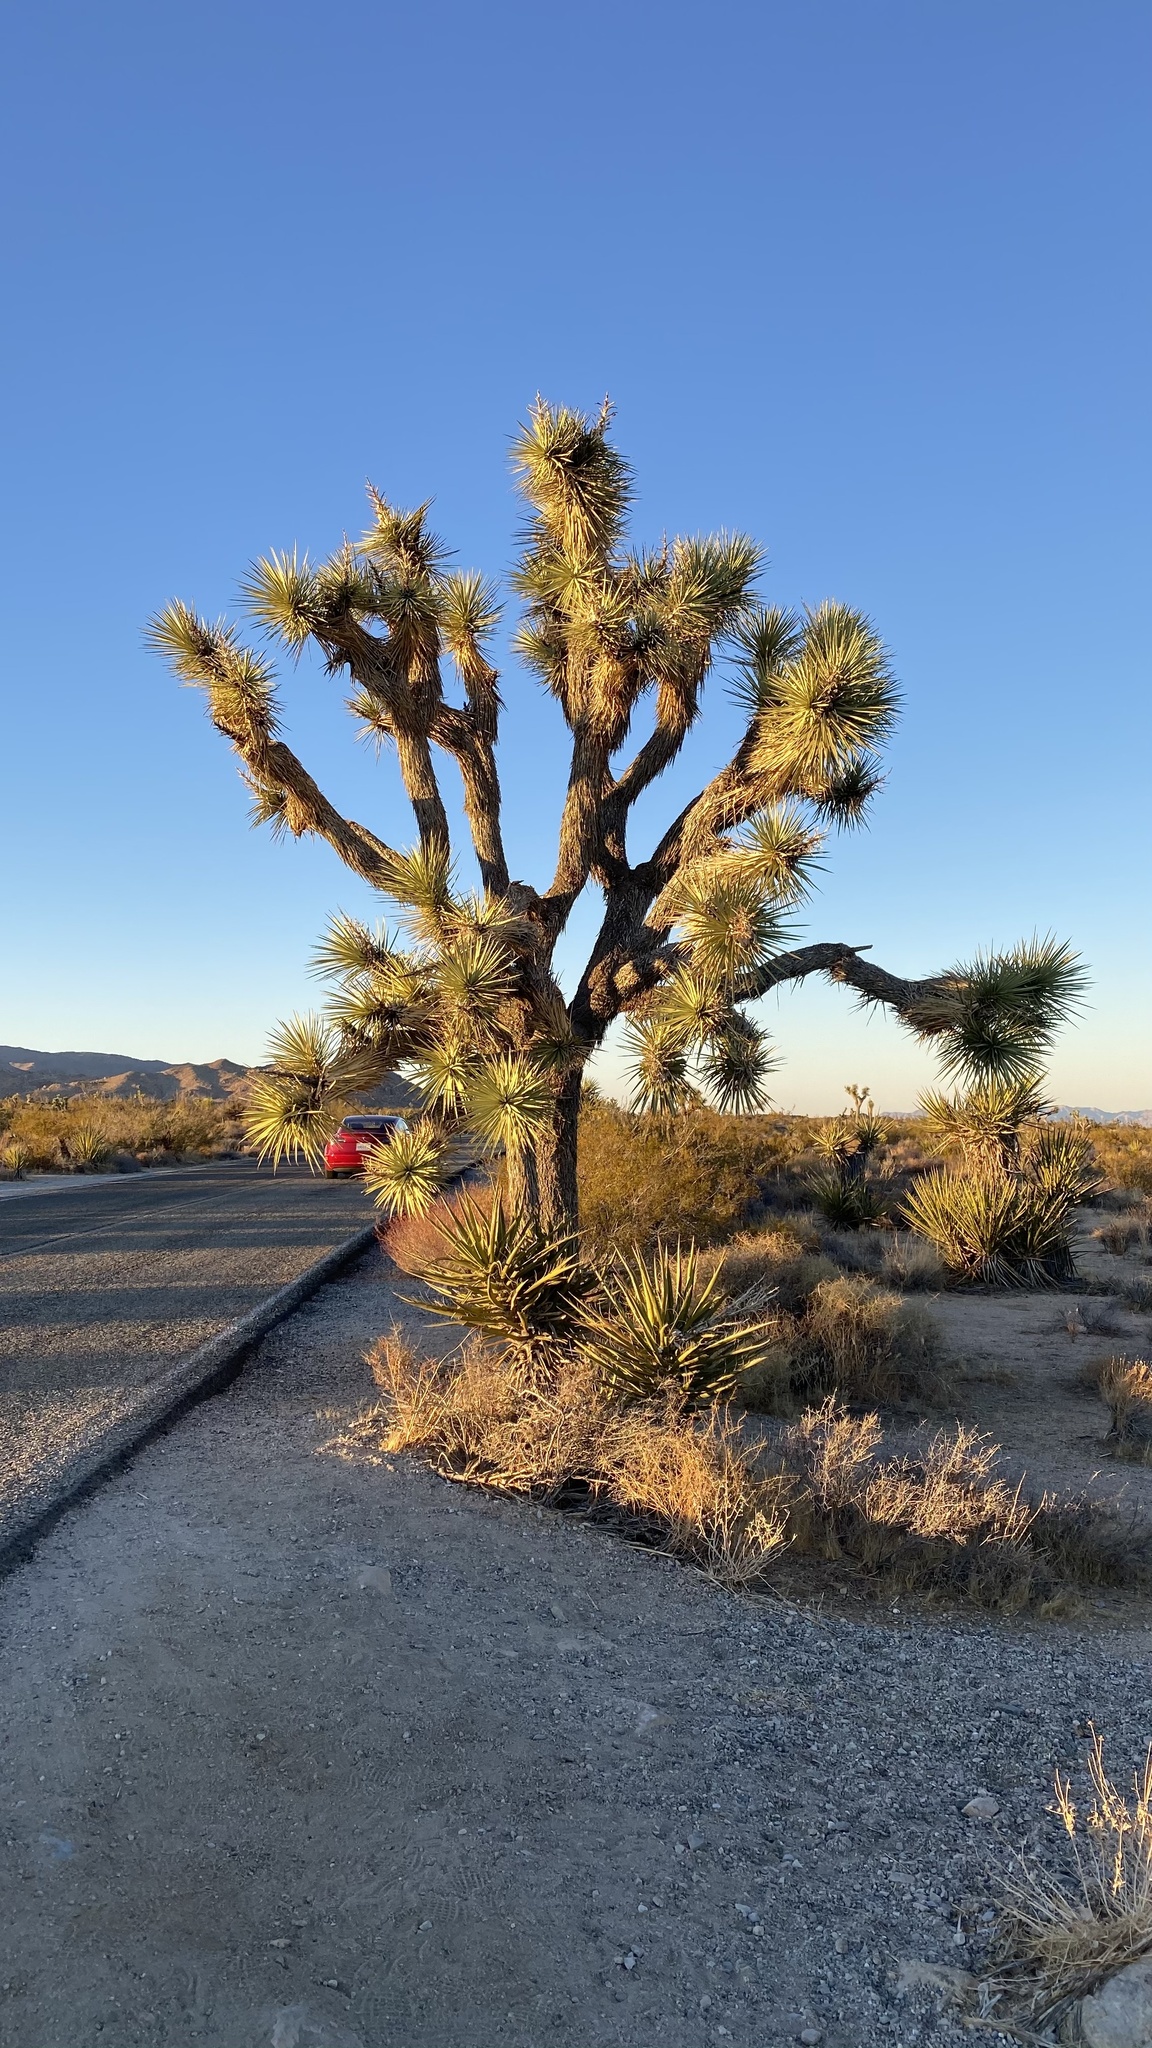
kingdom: Plantae
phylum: Tracheophyta
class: Liliopsida
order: Asparagales
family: Asparagaceae
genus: Yucca
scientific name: Yucca brevifolia
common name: Joshua tree
